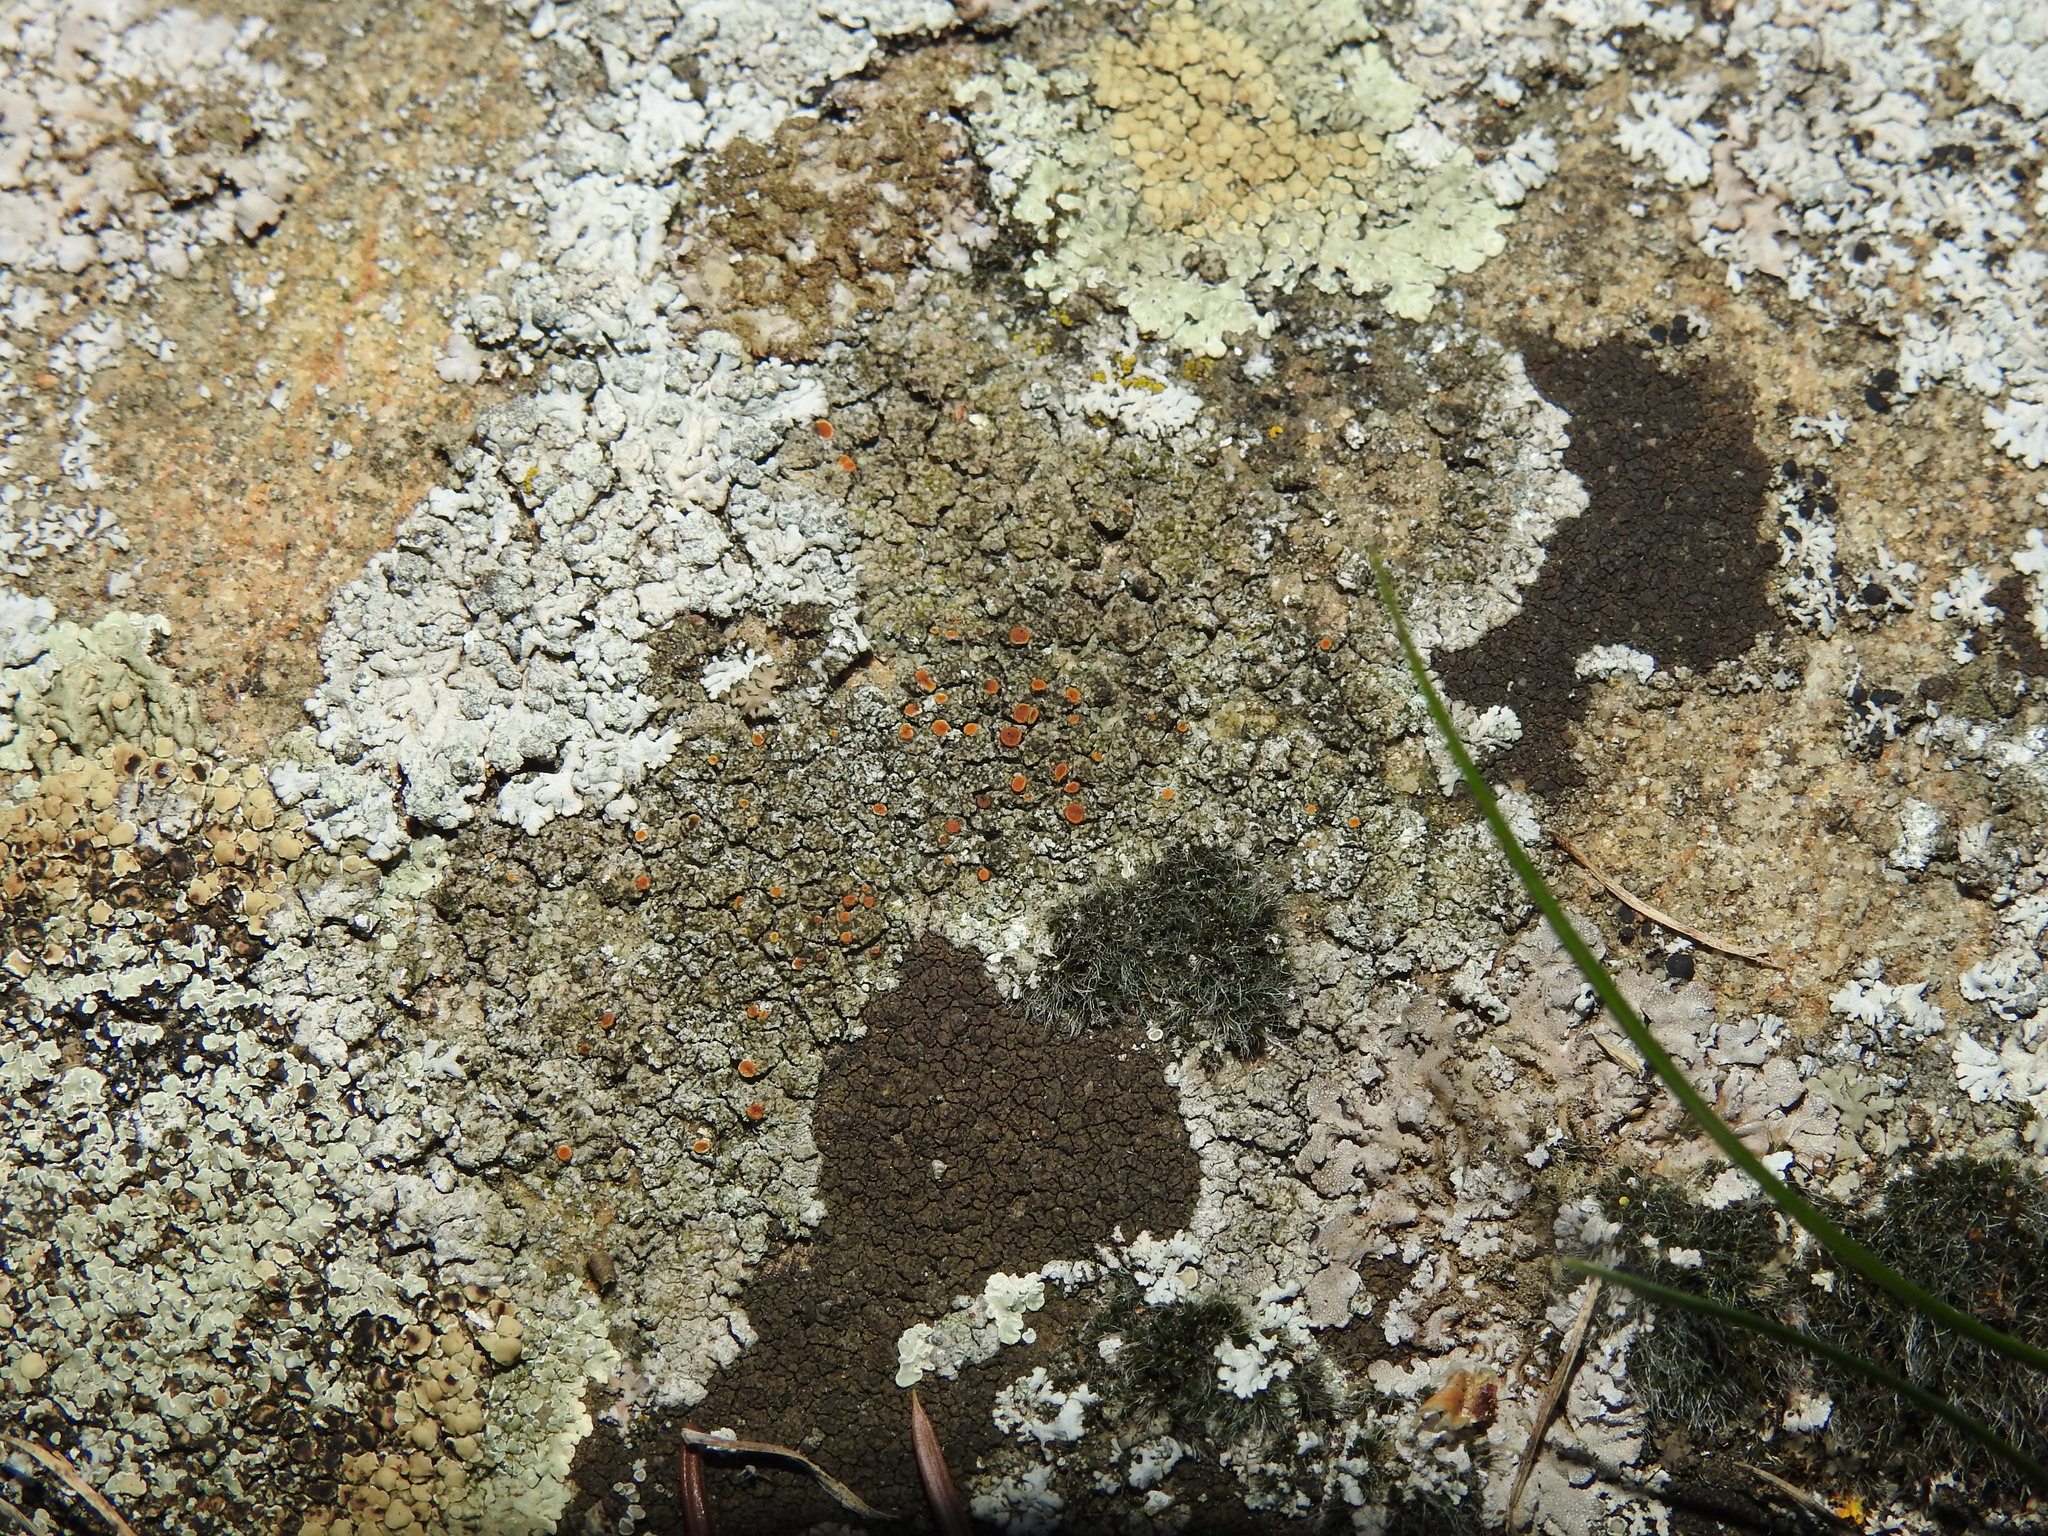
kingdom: Fungi
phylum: Ascomycota
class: Lecanoromycetes
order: Teloschistales
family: Teloschistaceae
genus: Kuettlingeria
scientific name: Kuettlingeria teicholyta
